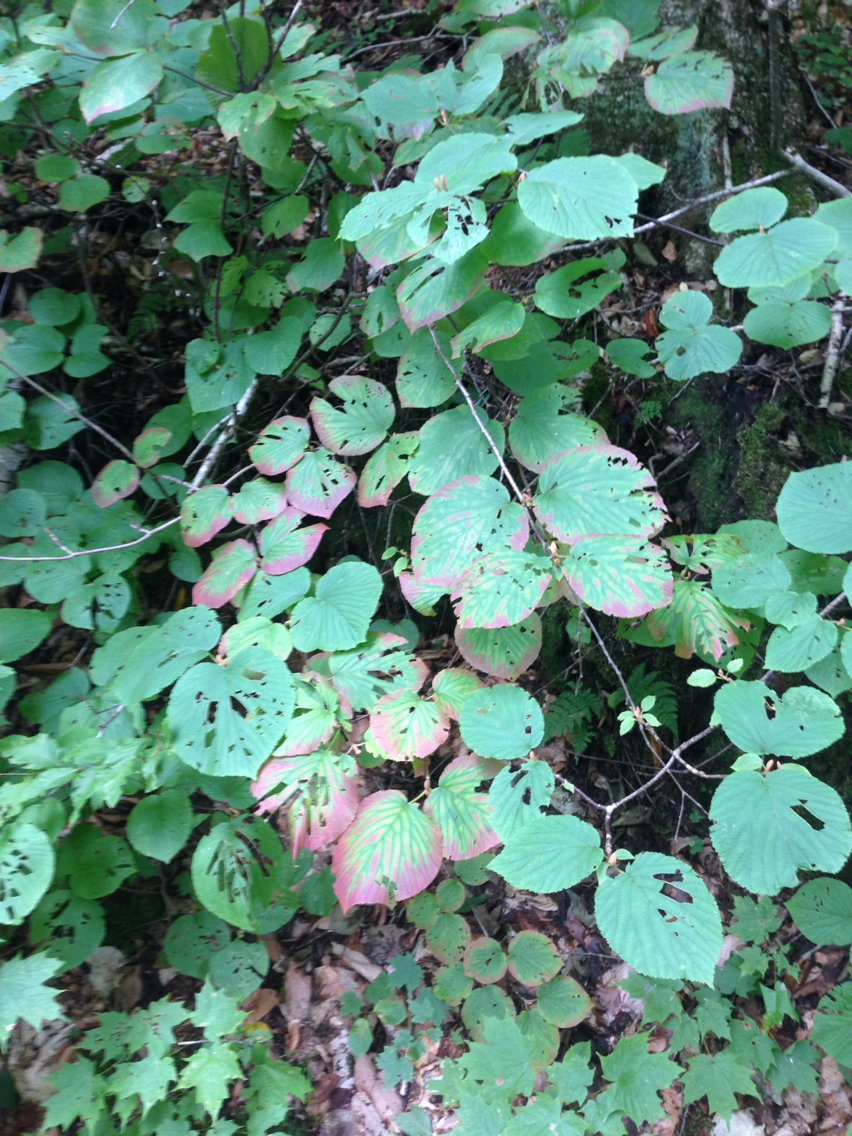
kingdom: Plantae
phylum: Tracheophyta
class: Magnoliopsida
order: Dipsacales
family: Viburnaceae
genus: Viburnum
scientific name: Viburnum lantanoides
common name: Hobblebush
